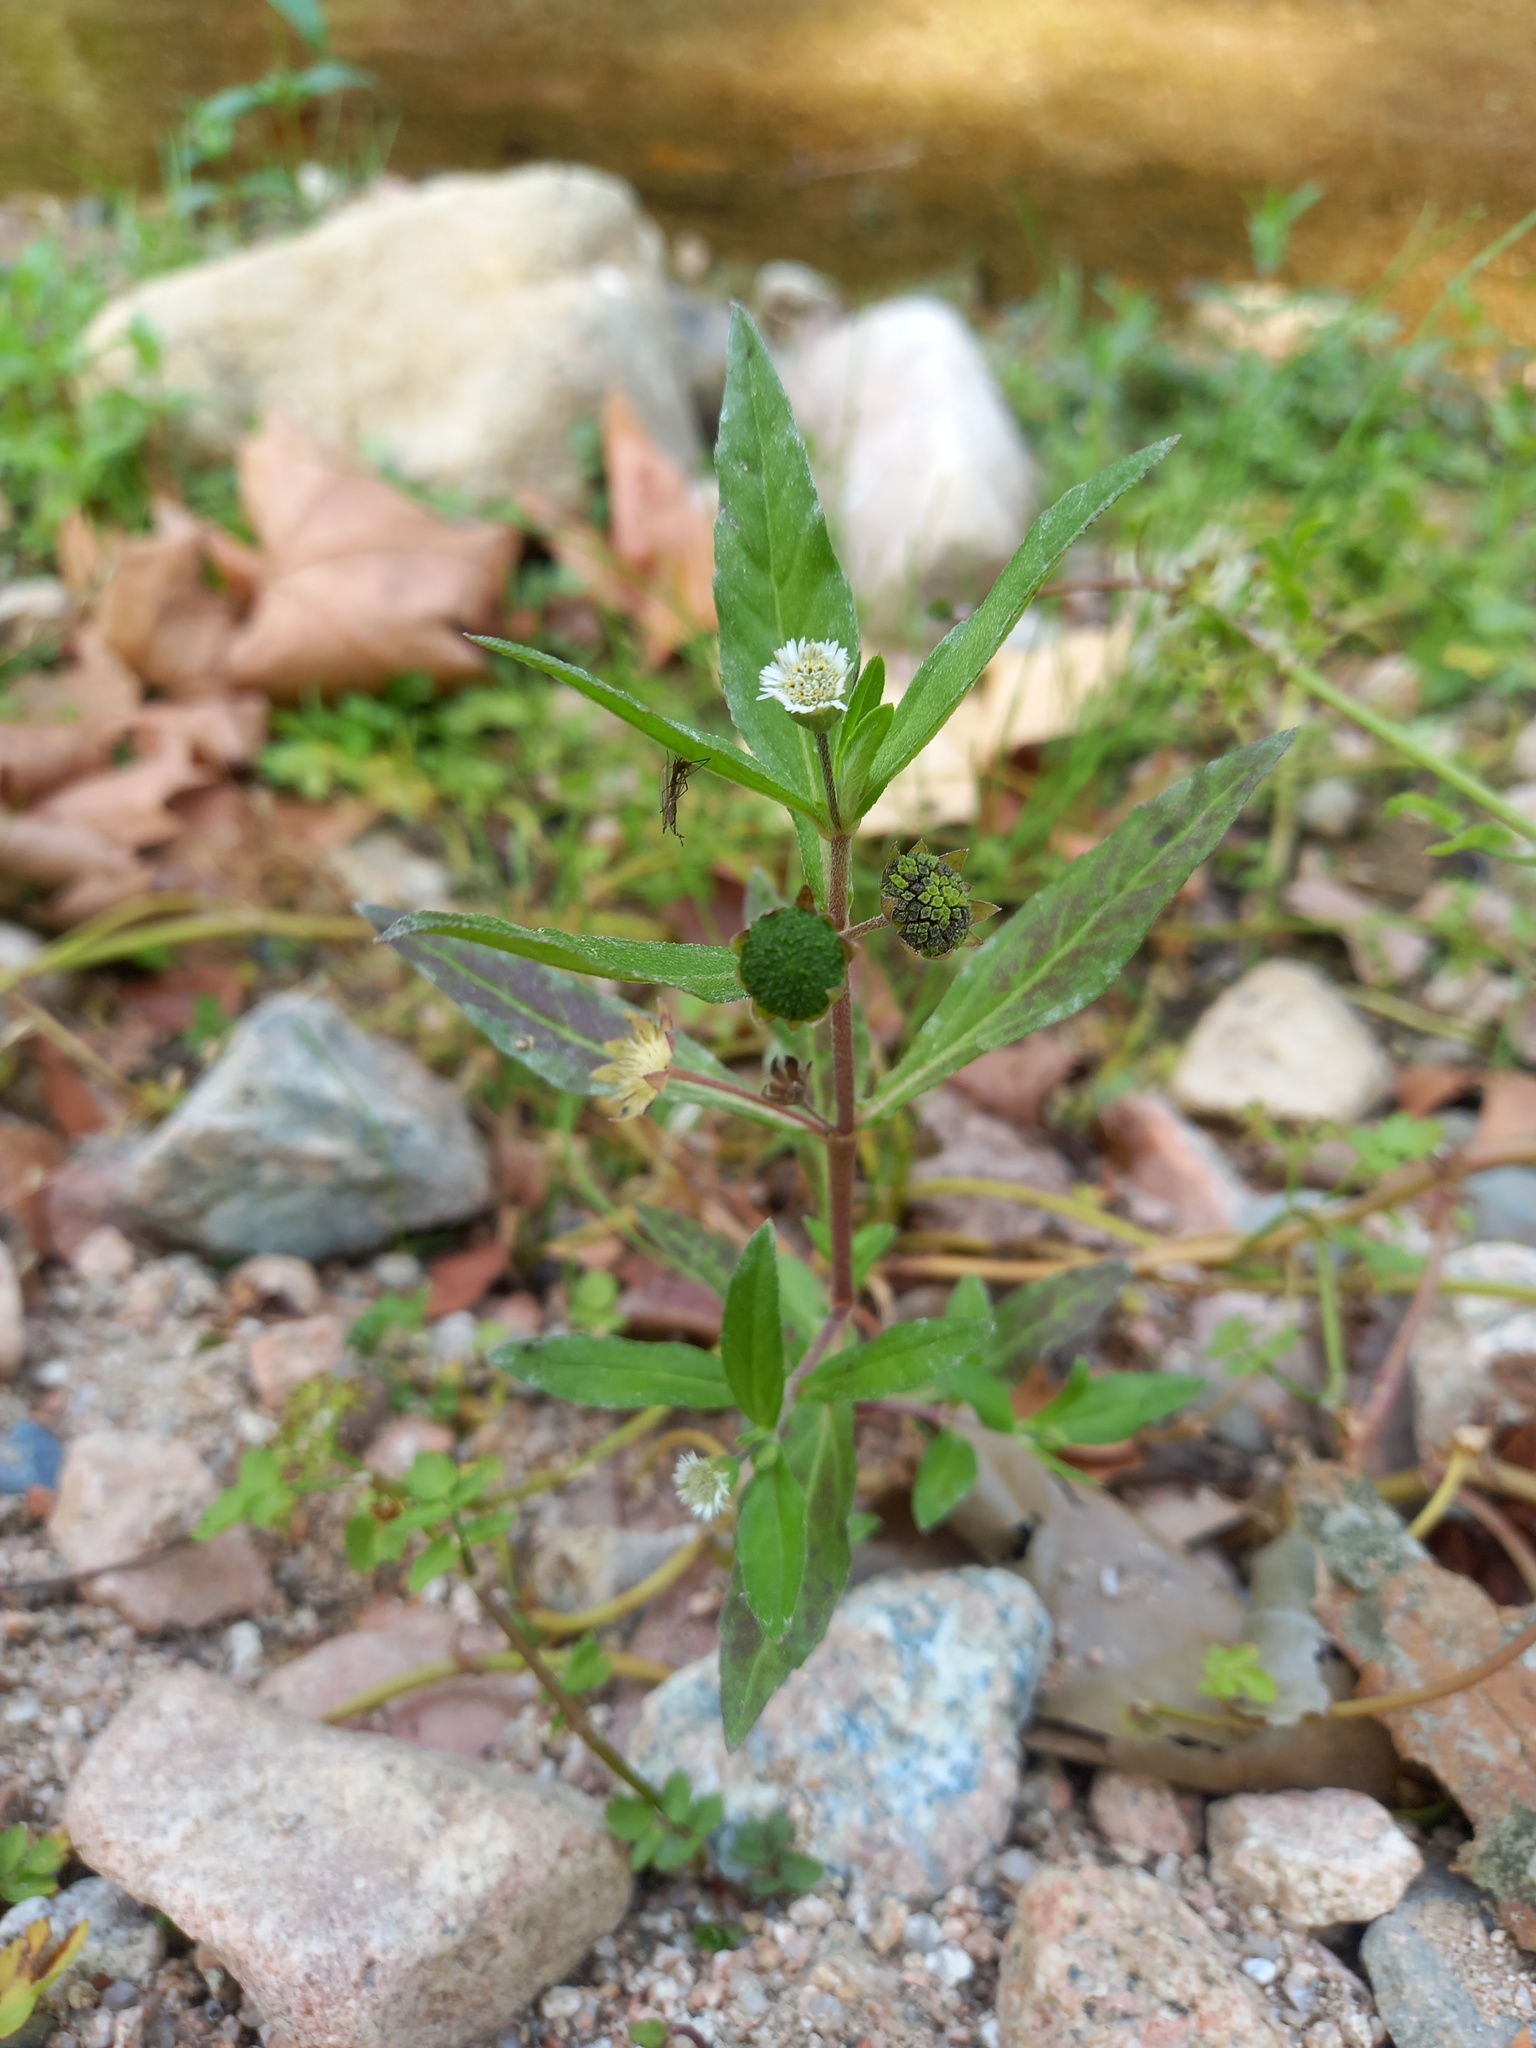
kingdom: Plantae
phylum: Tracheophyta
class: Magnoliopsida
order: Asterales
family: Asteraceae
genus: Eclipta
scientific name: Eclipta prostrata
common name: False daisy
